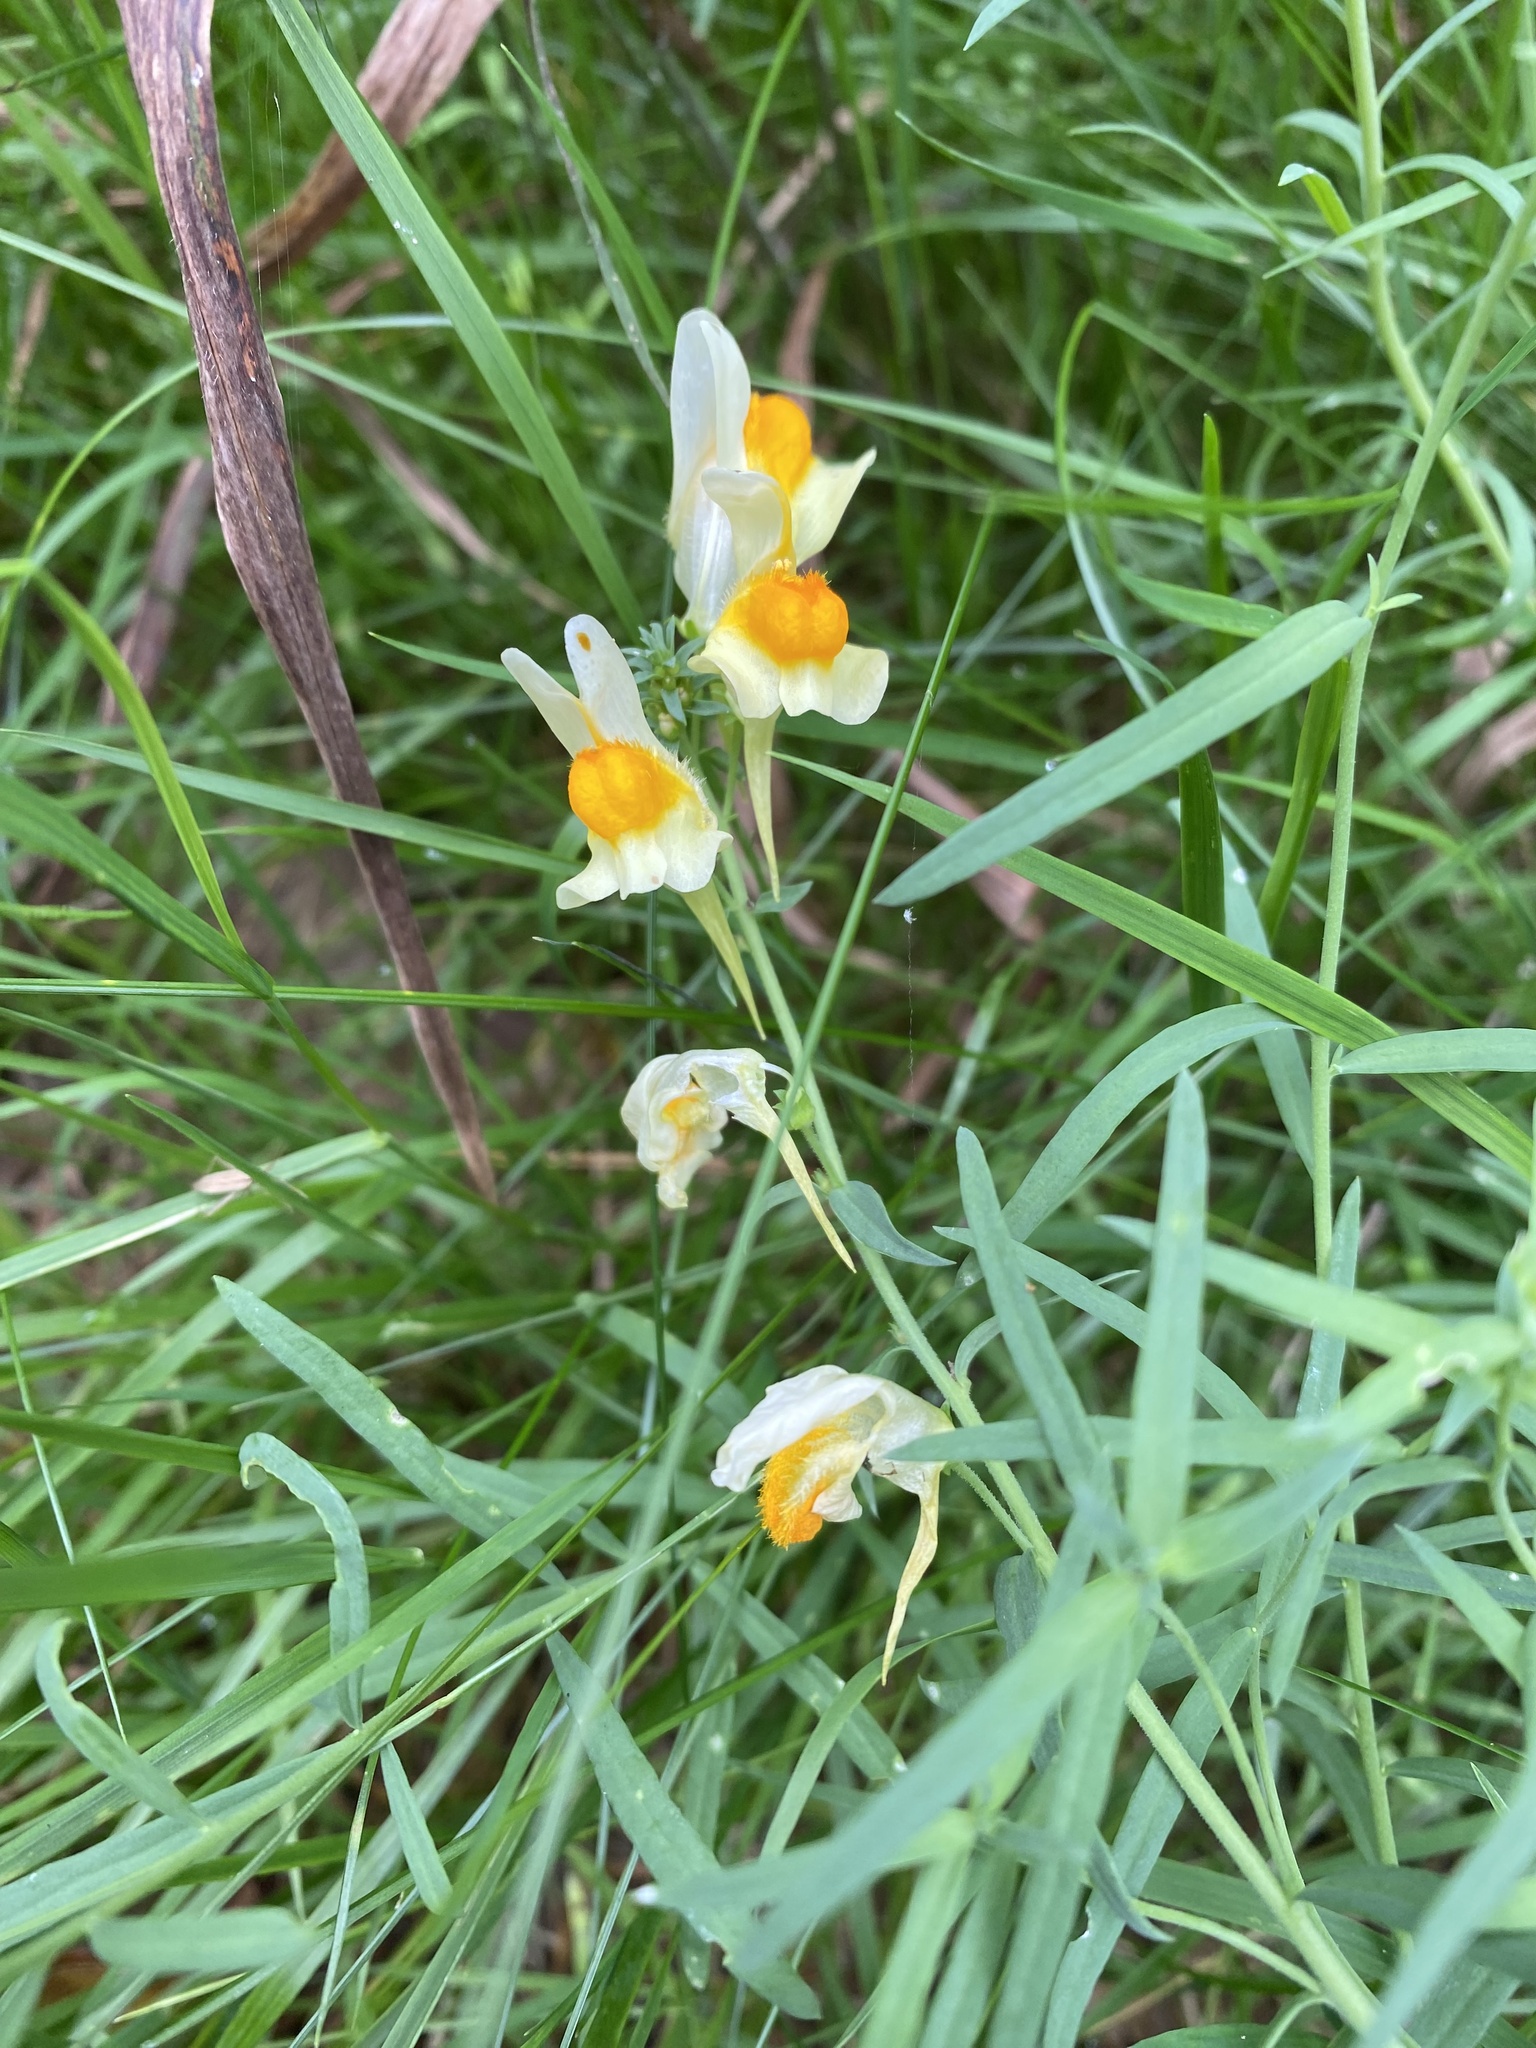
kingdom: Plantae
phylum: Tracheophyta
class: Magnoliopsida
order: Lamiales
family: Plantaginaceae
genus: Linaria
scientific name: Linaria vulgaris
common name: Butter and eggs
